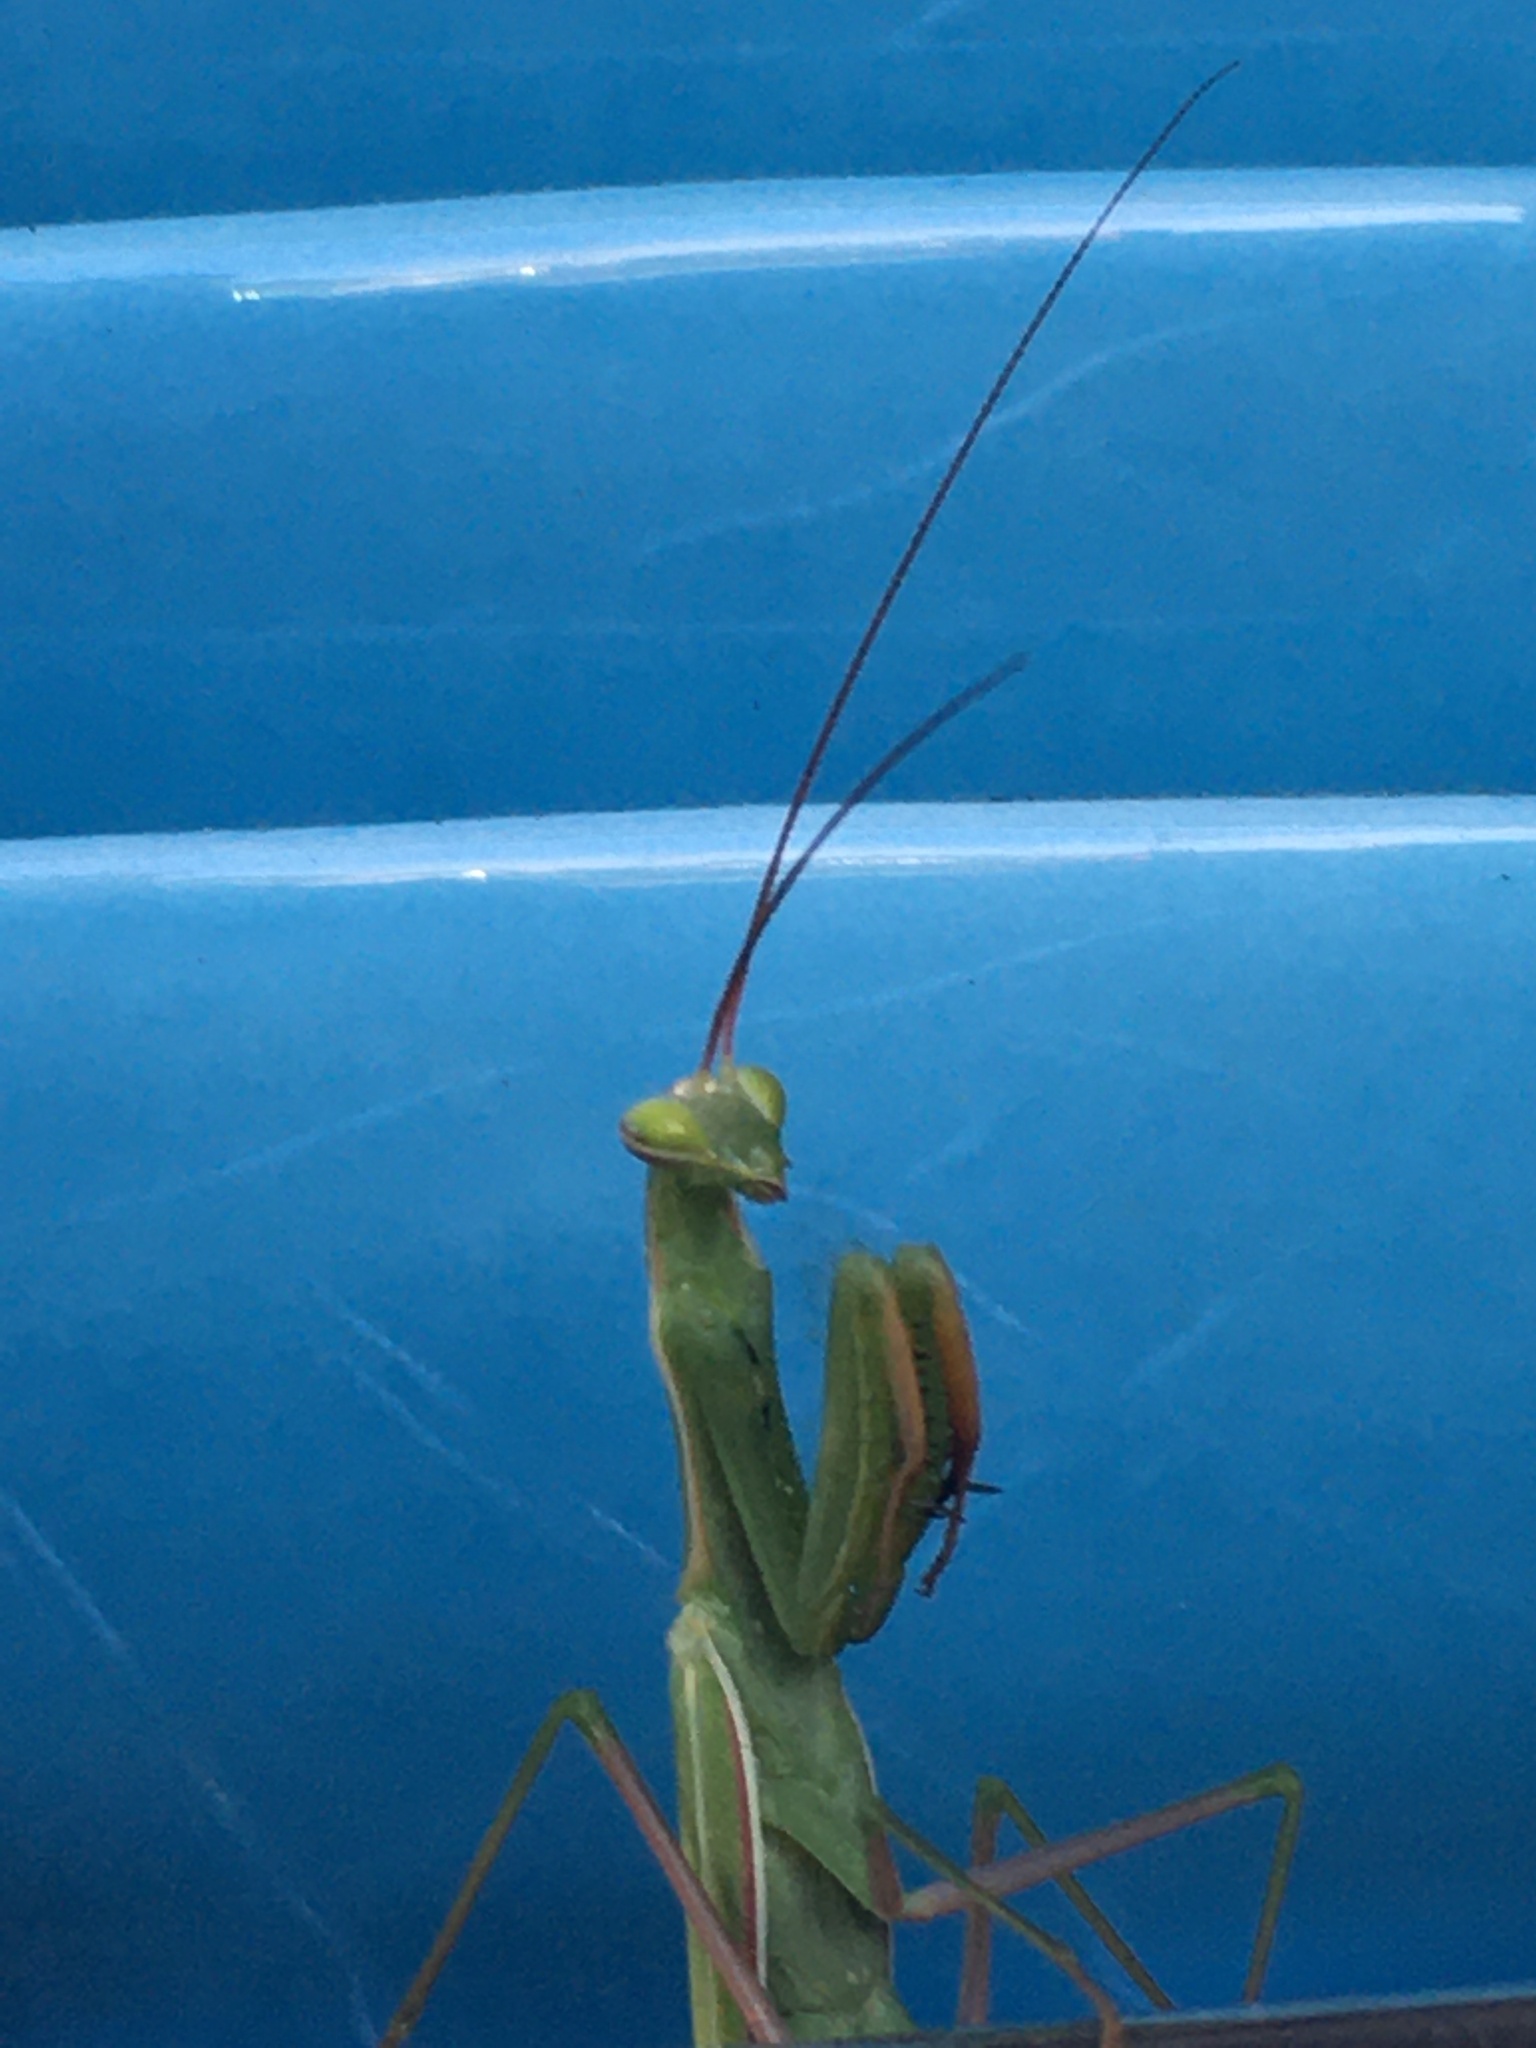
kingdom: Animalia
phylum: Arthropoda
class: Insecta
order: Mantodea
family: Mantidae
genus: Mantis
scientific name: Mantis religiosa
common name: Praying mantis
